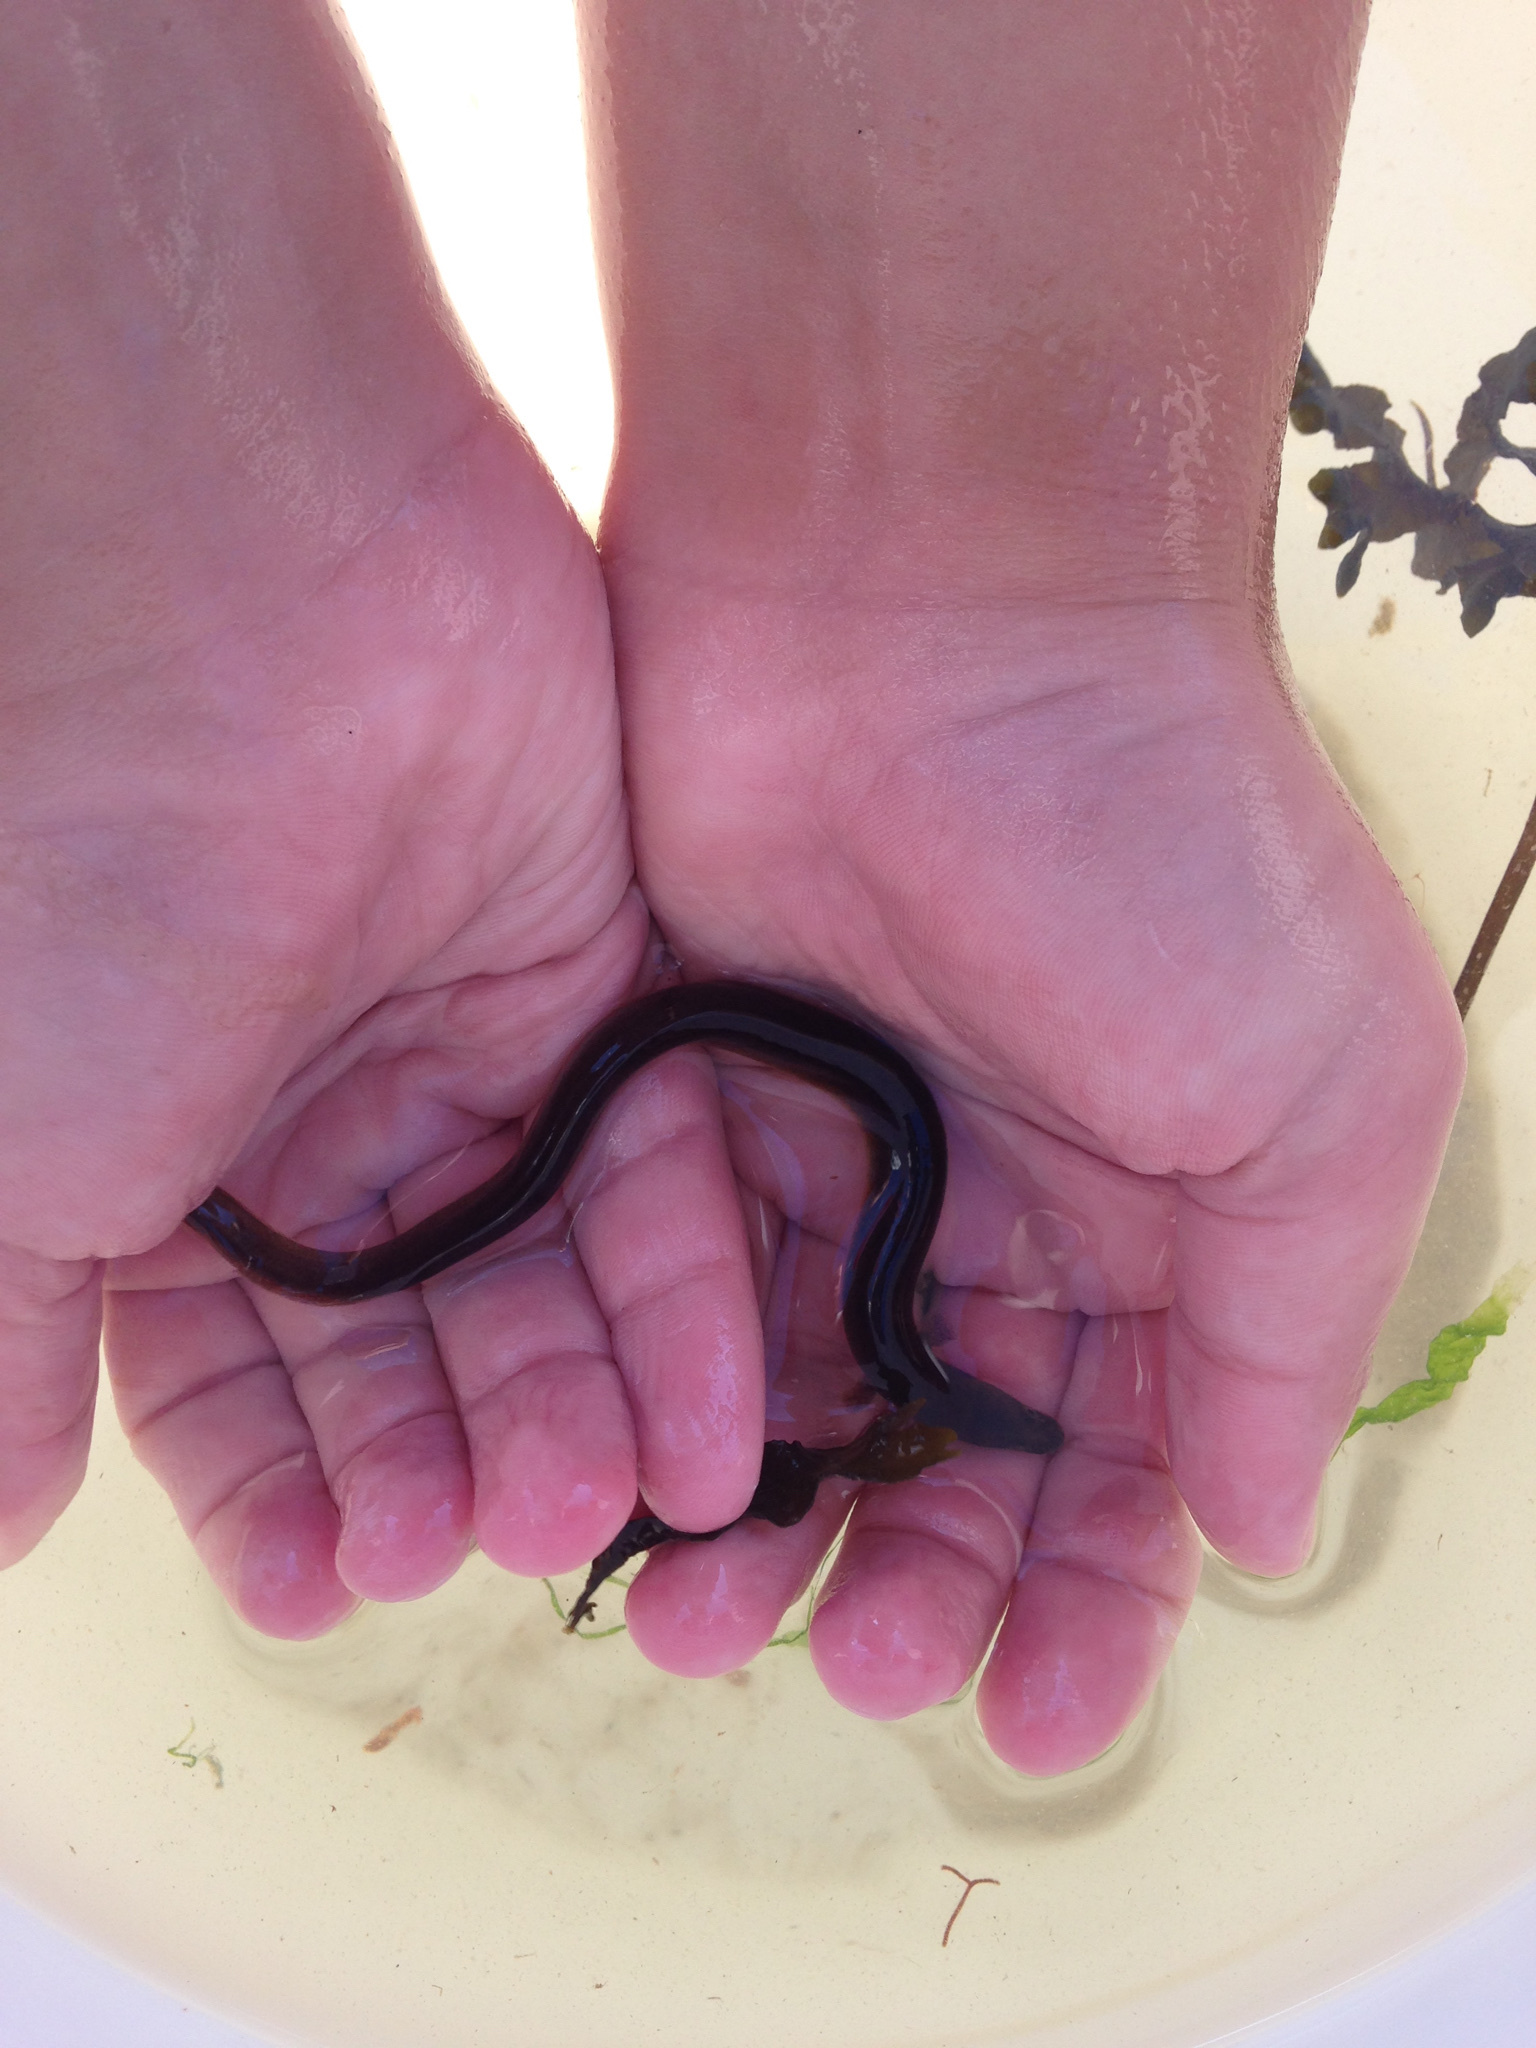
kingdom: Animalia
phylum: Chordata
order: Anguilliformes
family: Anguillidae
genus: Anguilla
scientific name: Anguilla rostrata
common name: American eel
